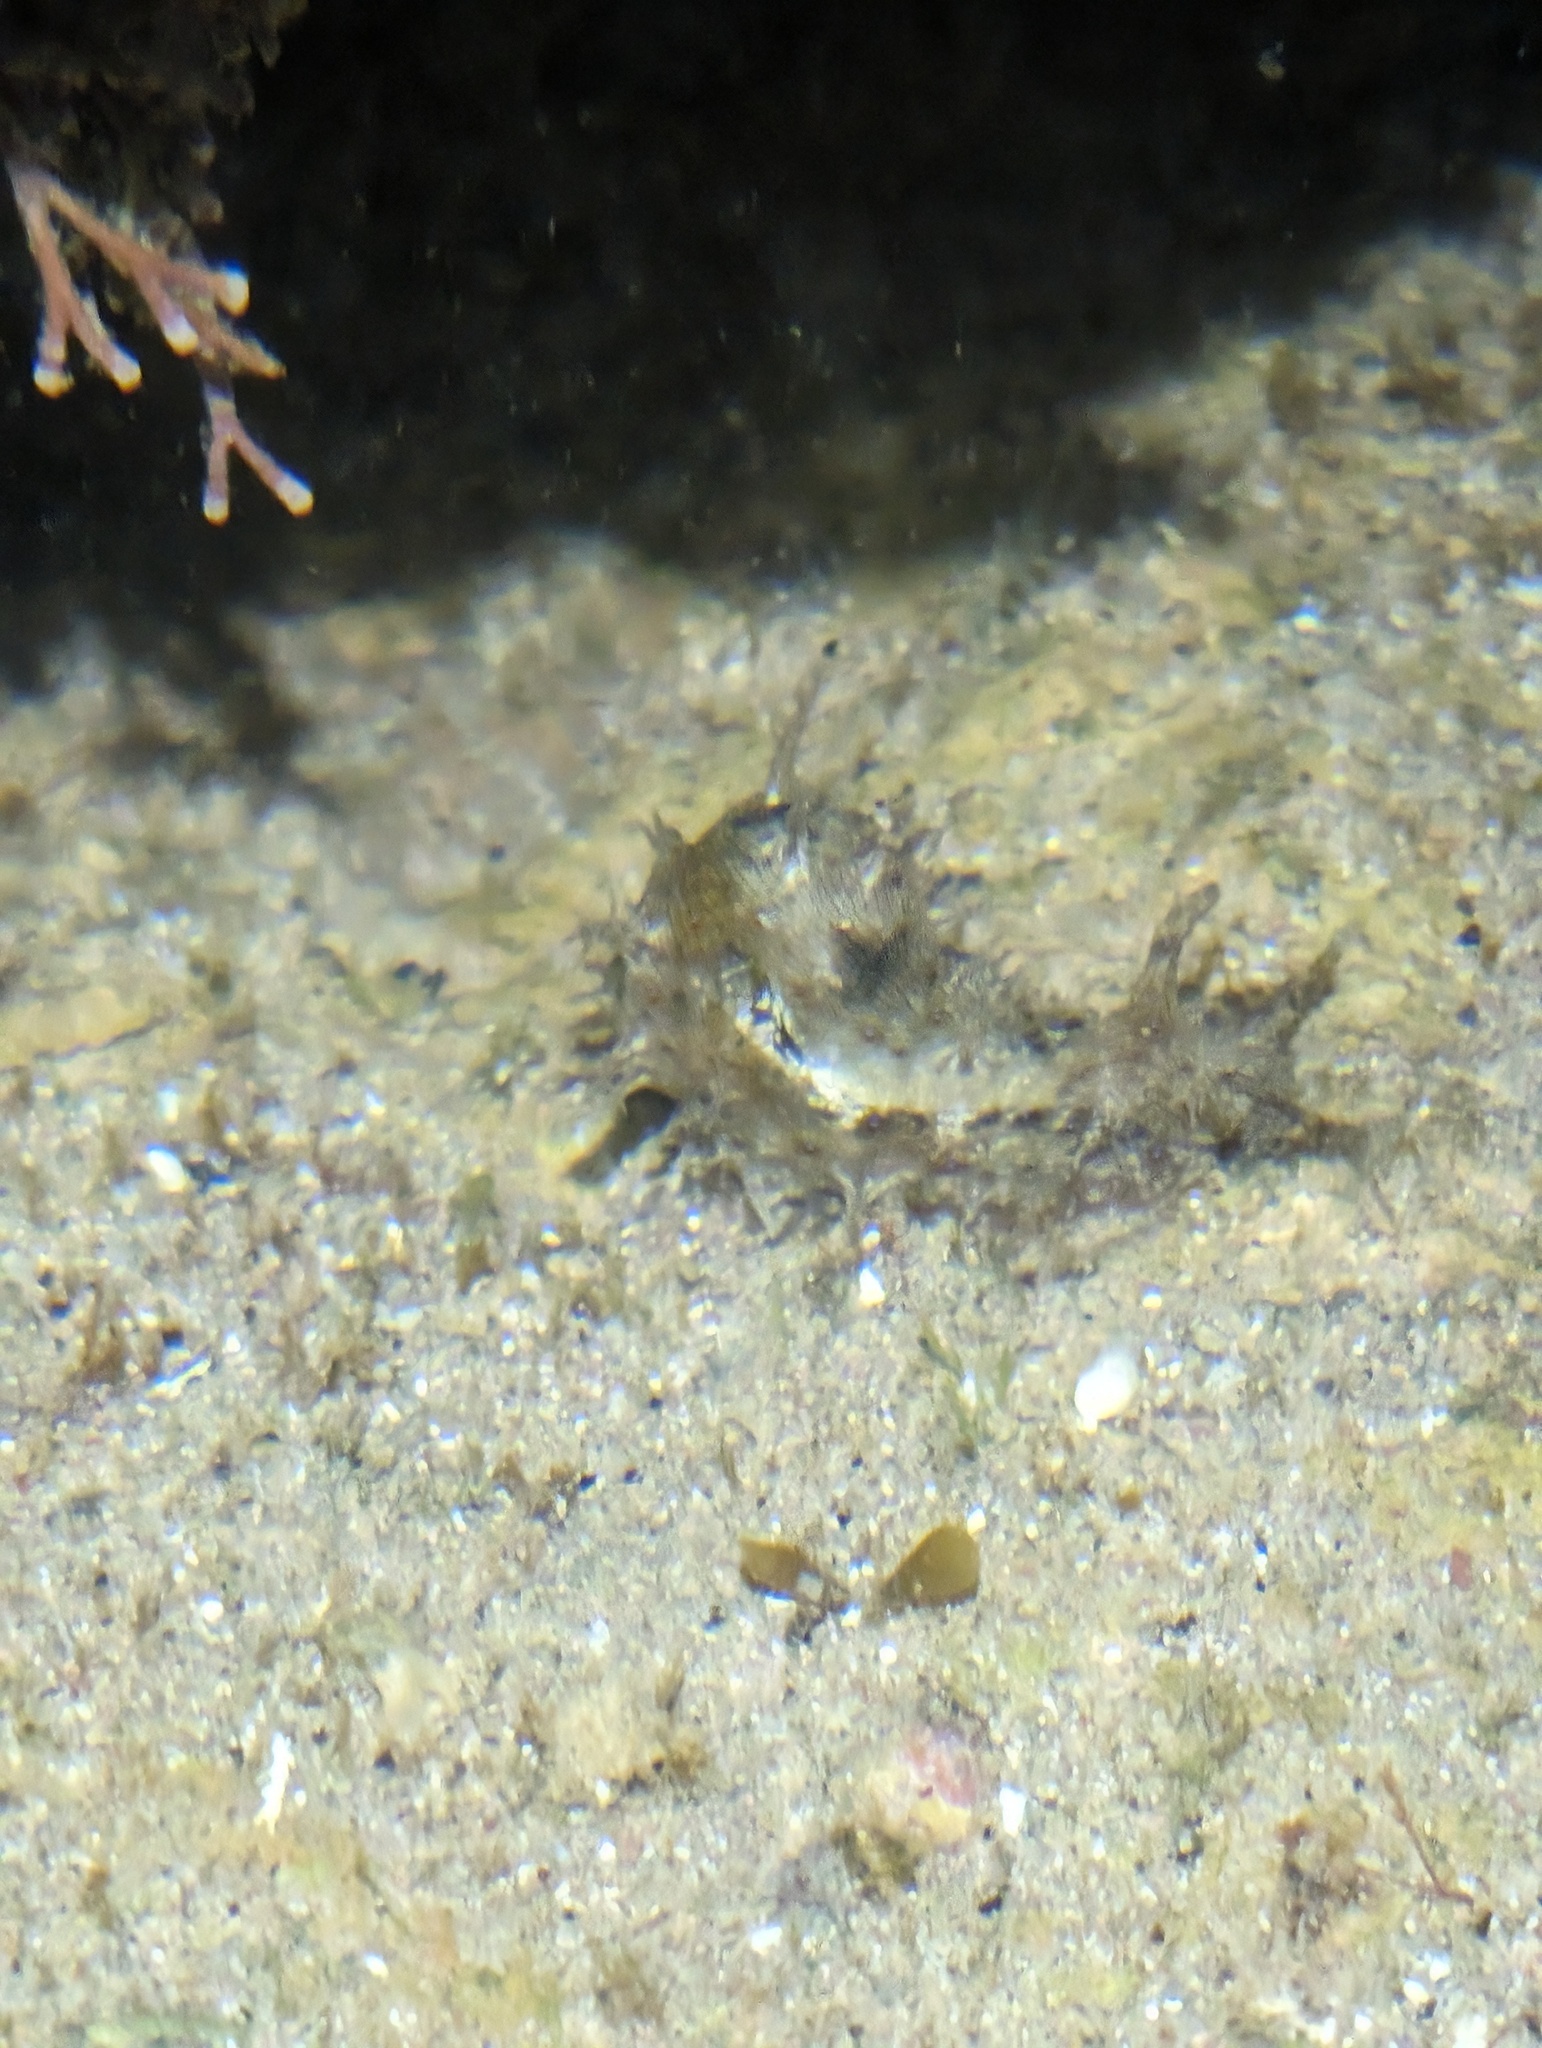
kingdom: Animalia
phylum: Mollusca
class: Gastropoda
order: Aplysiida
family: Aplysiidae
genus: Stylocheilus
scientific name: Stylocheilus rickettsi
